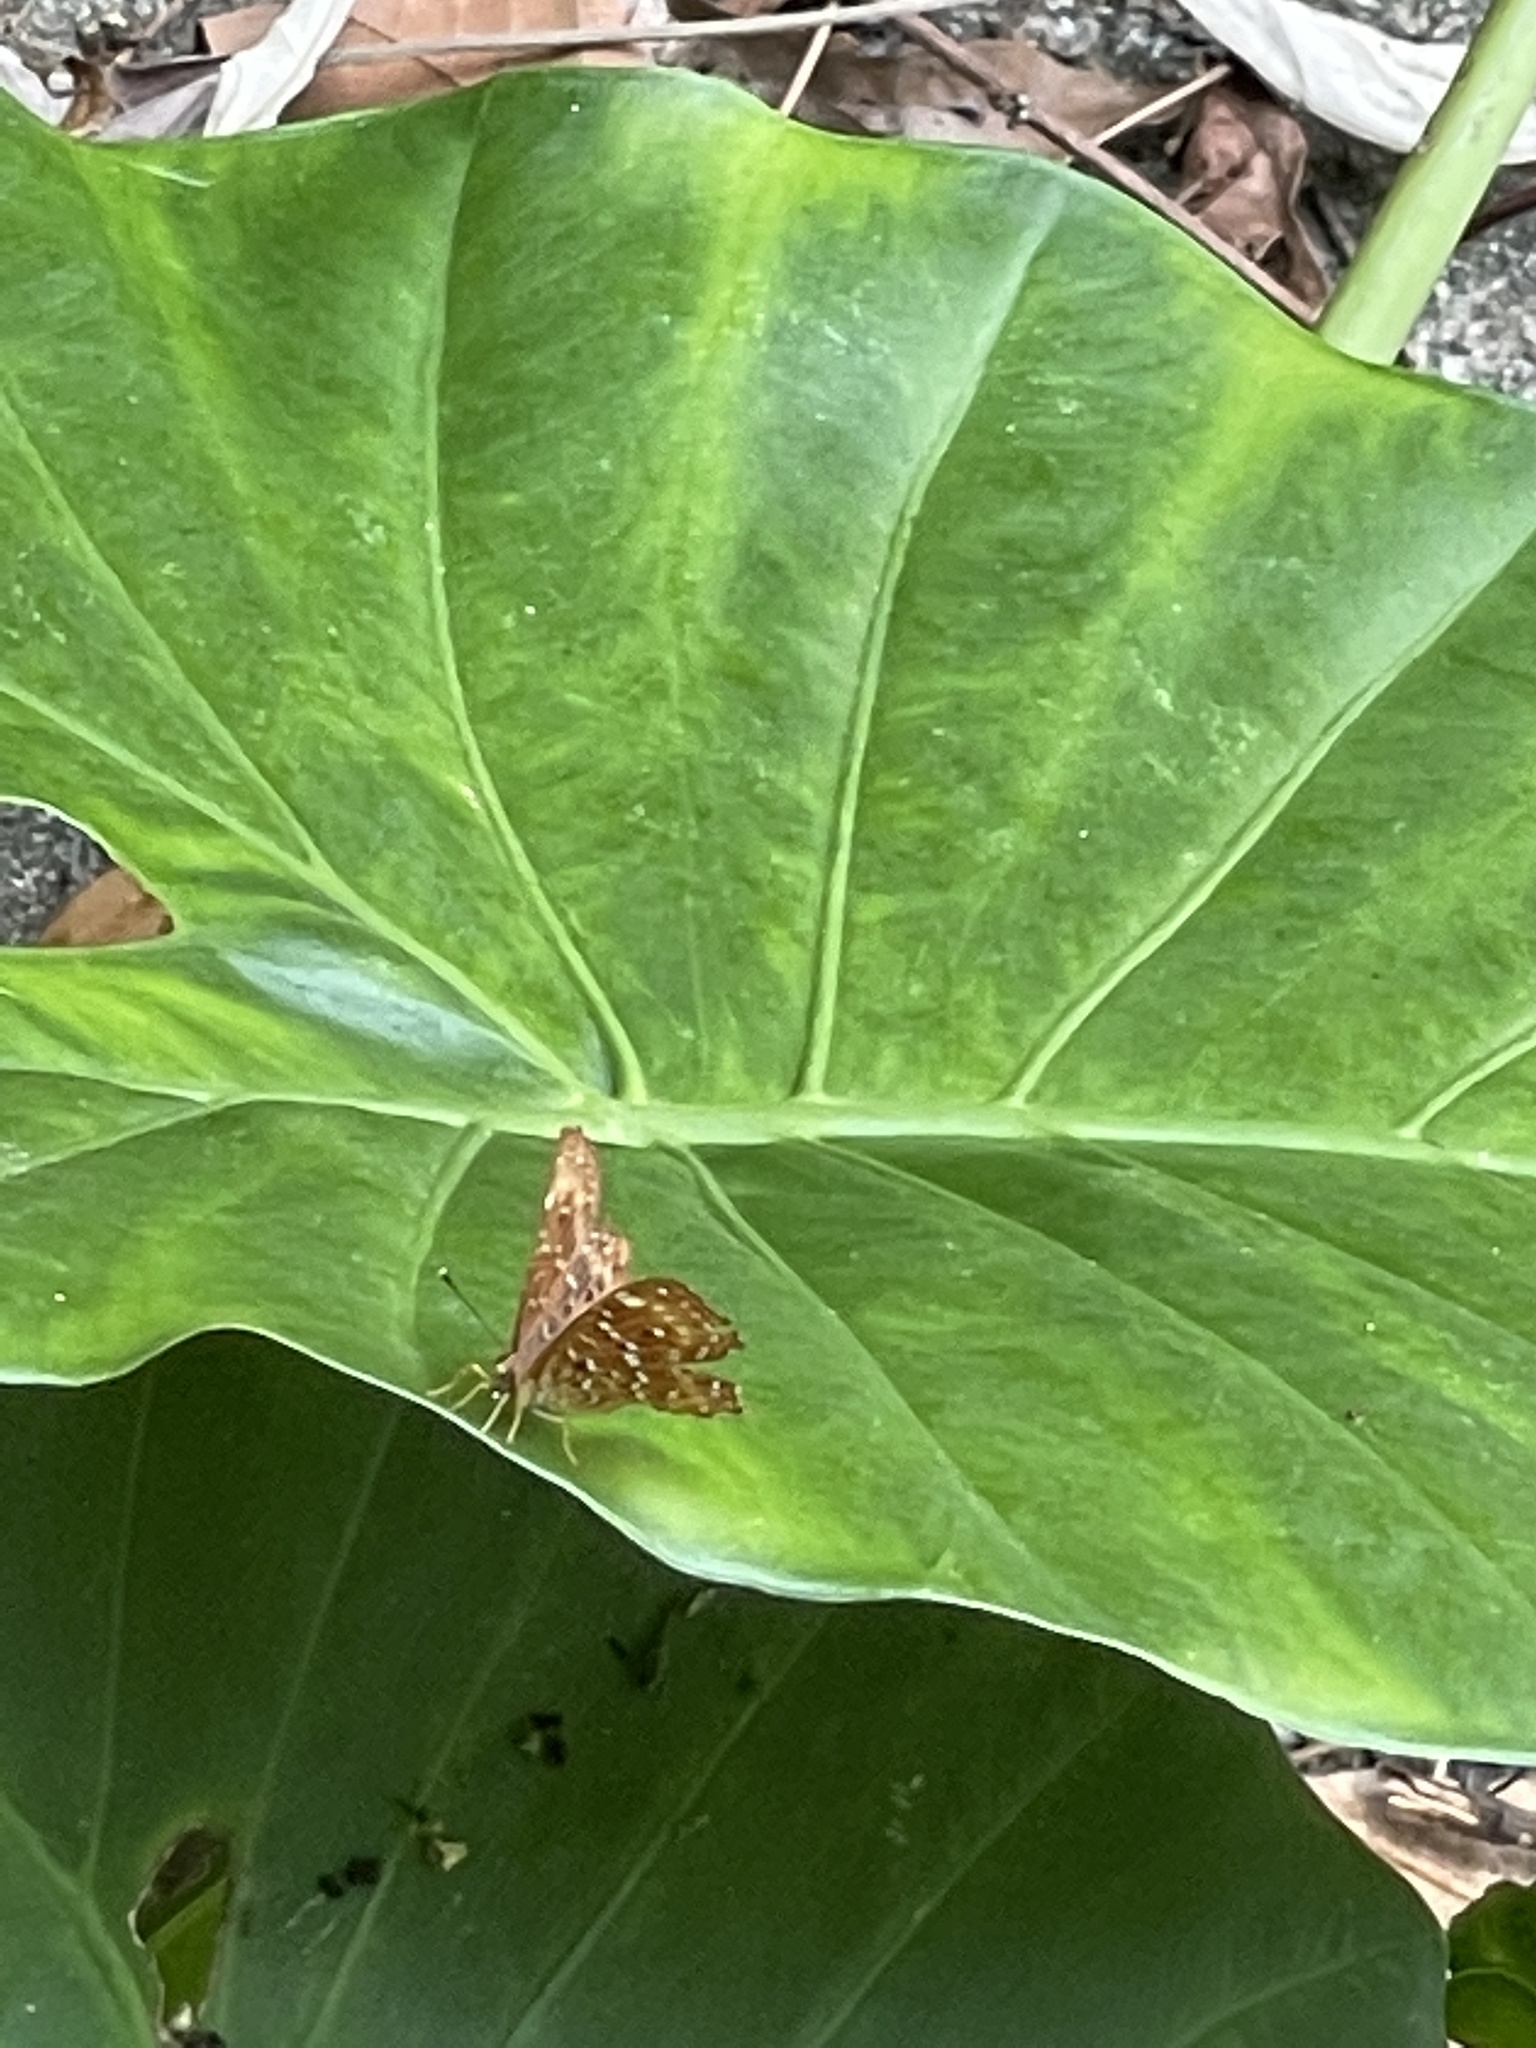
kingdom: Animalia
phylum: Arthropoda
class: Insecta
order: Lepidoptera
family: Riodinidae
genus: Zemeros
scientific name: Zemeros flegyas
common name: Punchinello
